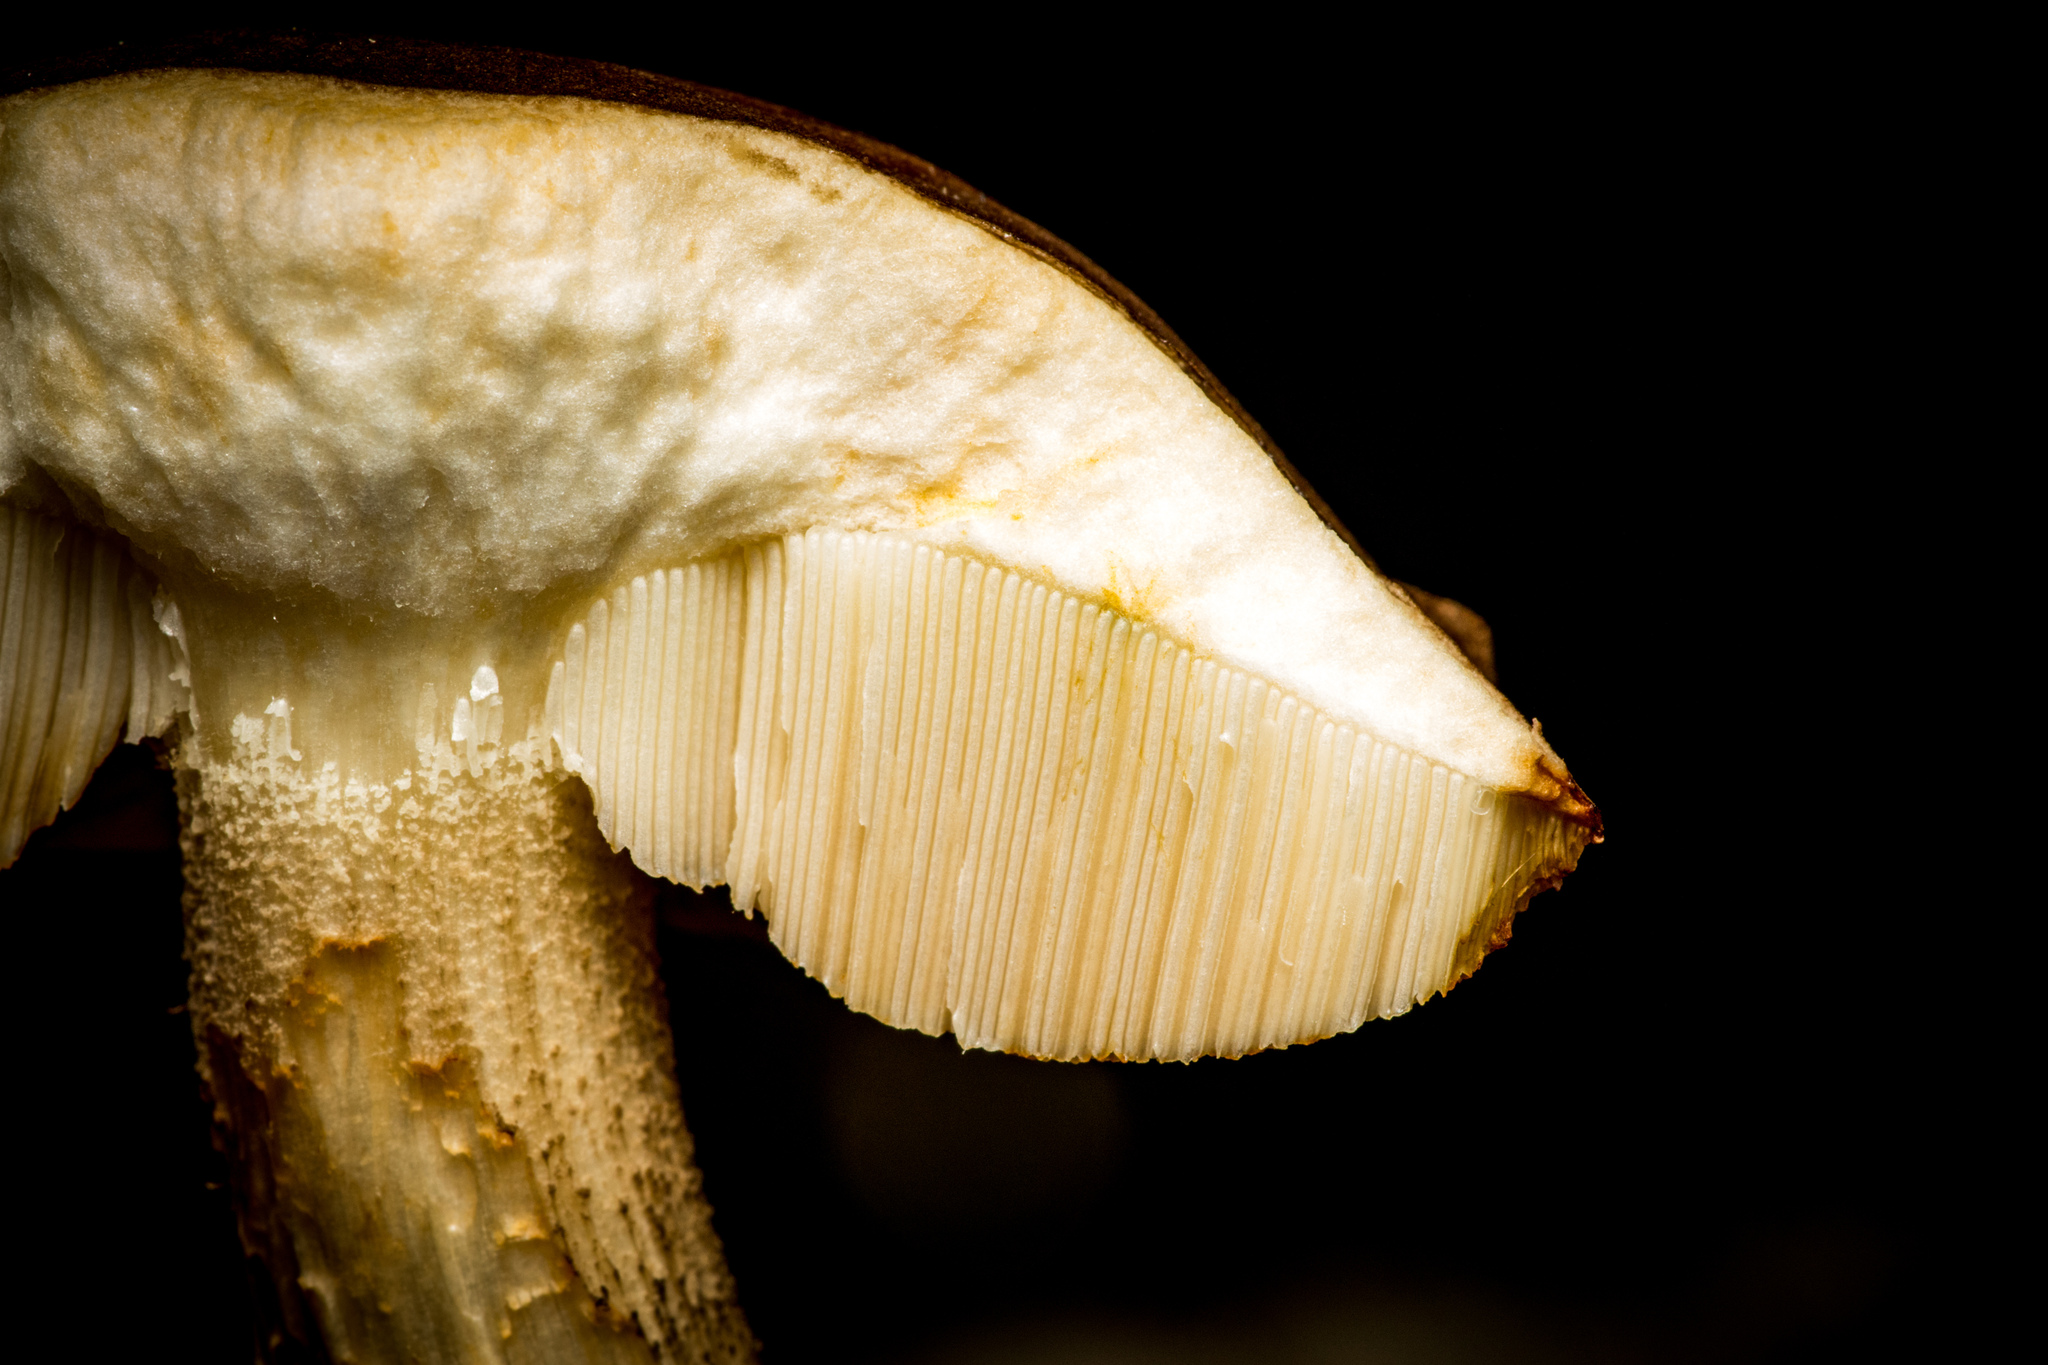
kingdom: Fungi
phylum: Basidiomycota
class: Agaricomycetes
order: Boletales
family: Boletaceae
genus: Leccinum
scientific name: Leccinum scabrum
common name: Blushing bolete
